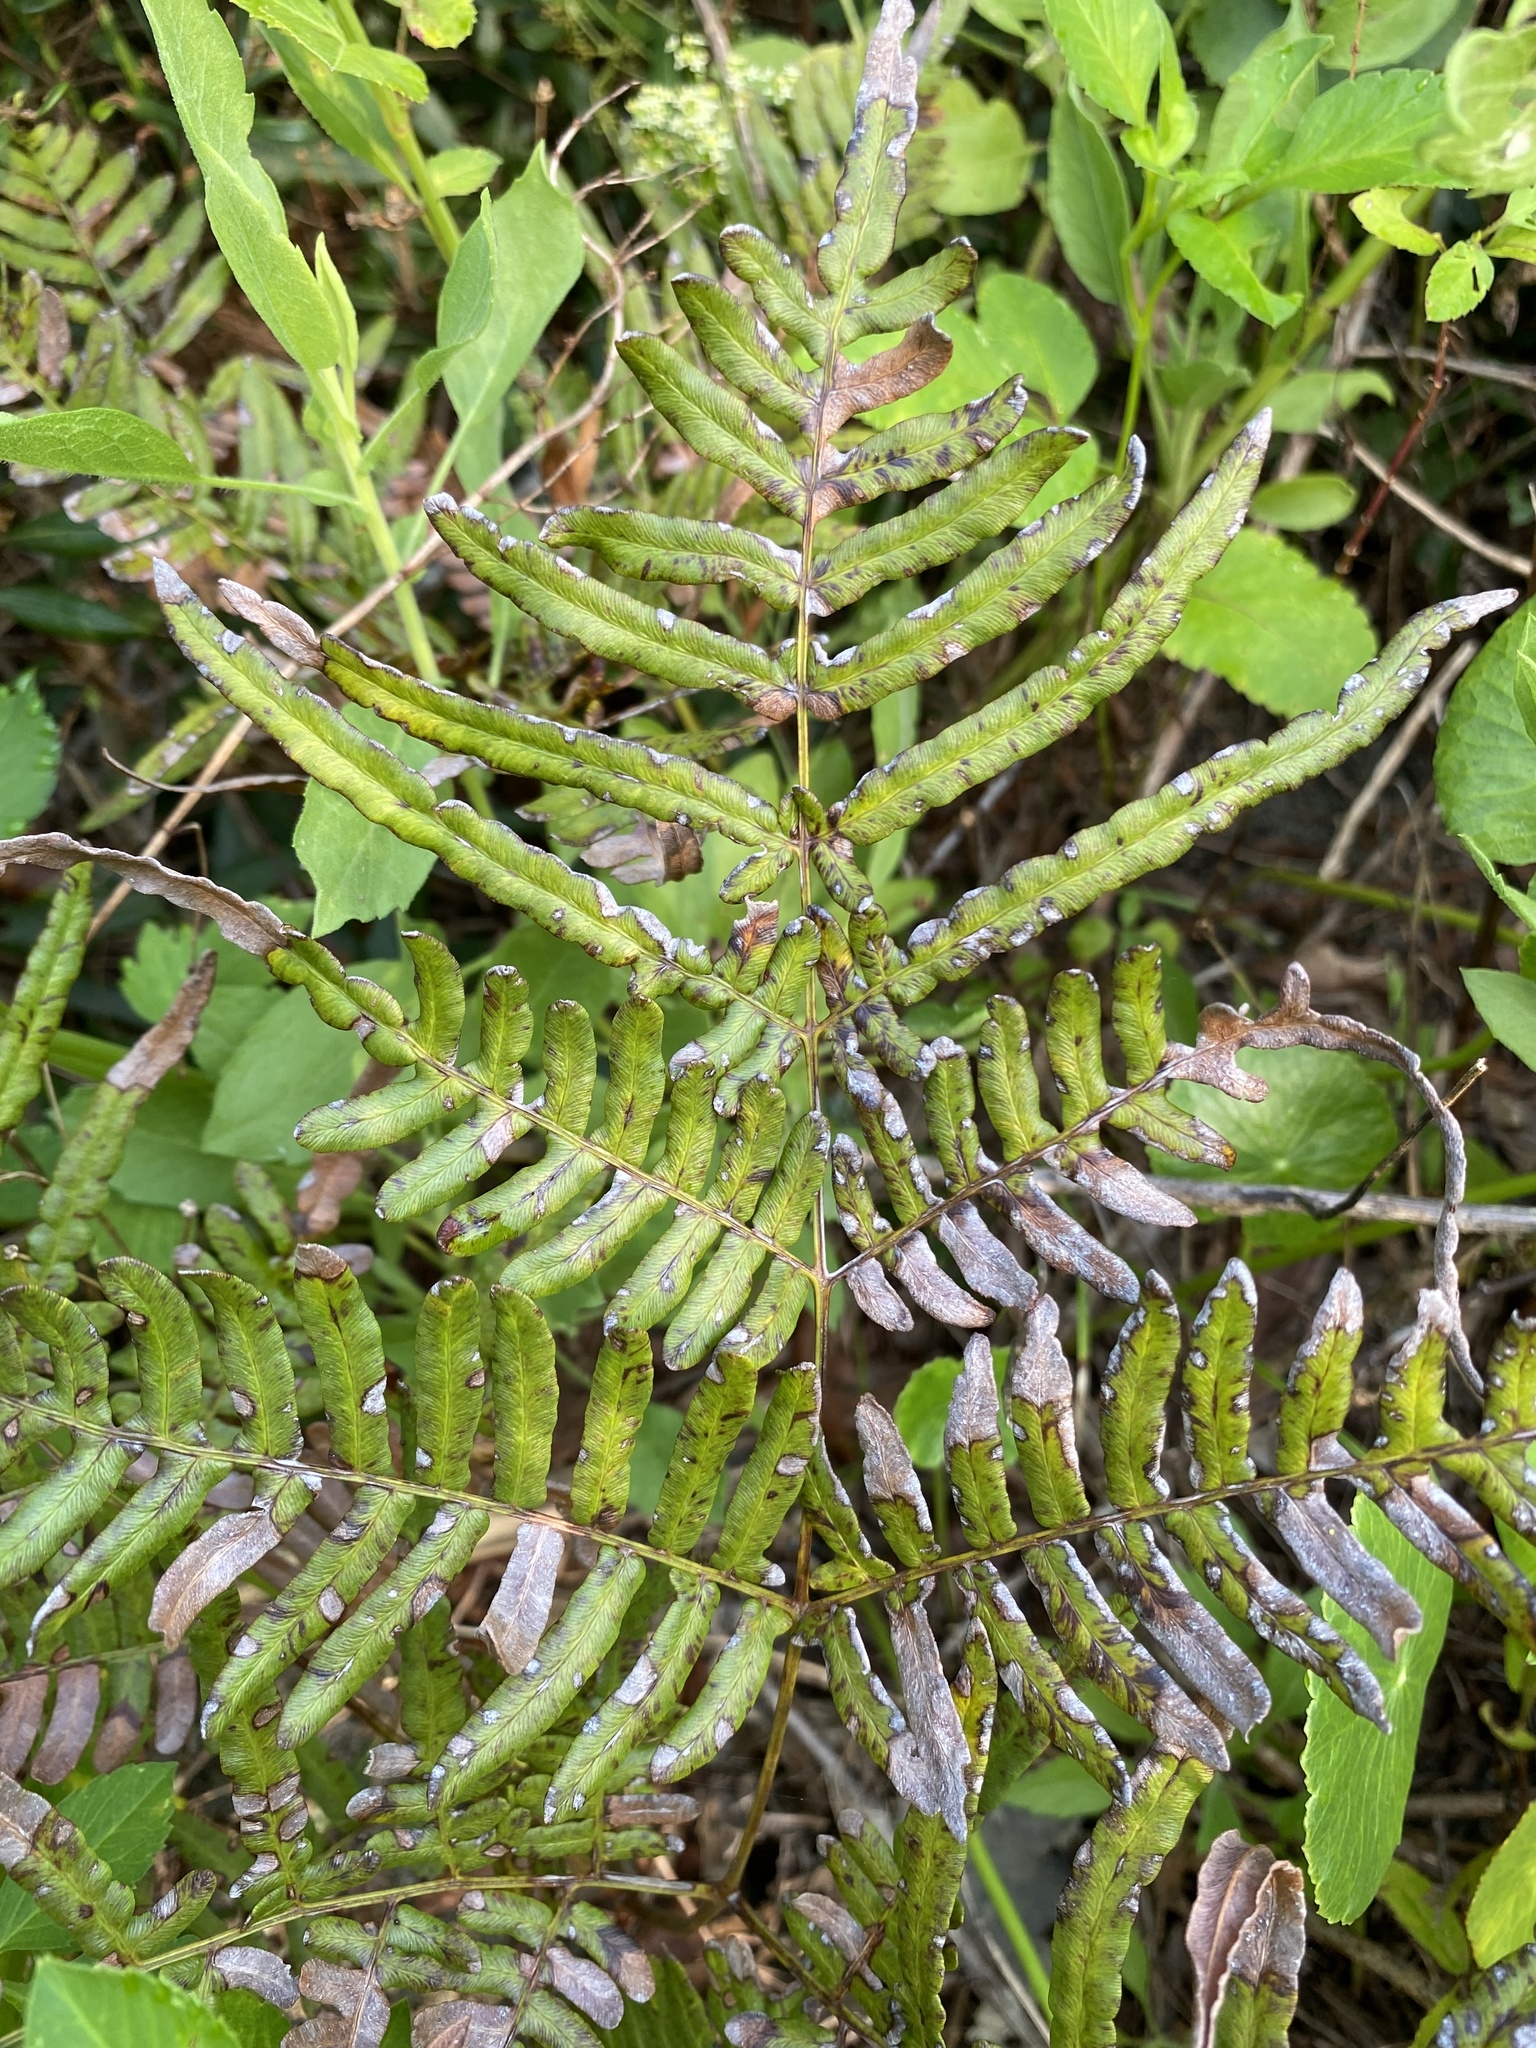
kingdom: Plantae
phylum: Tracheophyta
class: Polypodiopsida
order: Polypodiales
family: Dennstaedtiaceae
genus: Pteridium
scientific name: Pteridium
